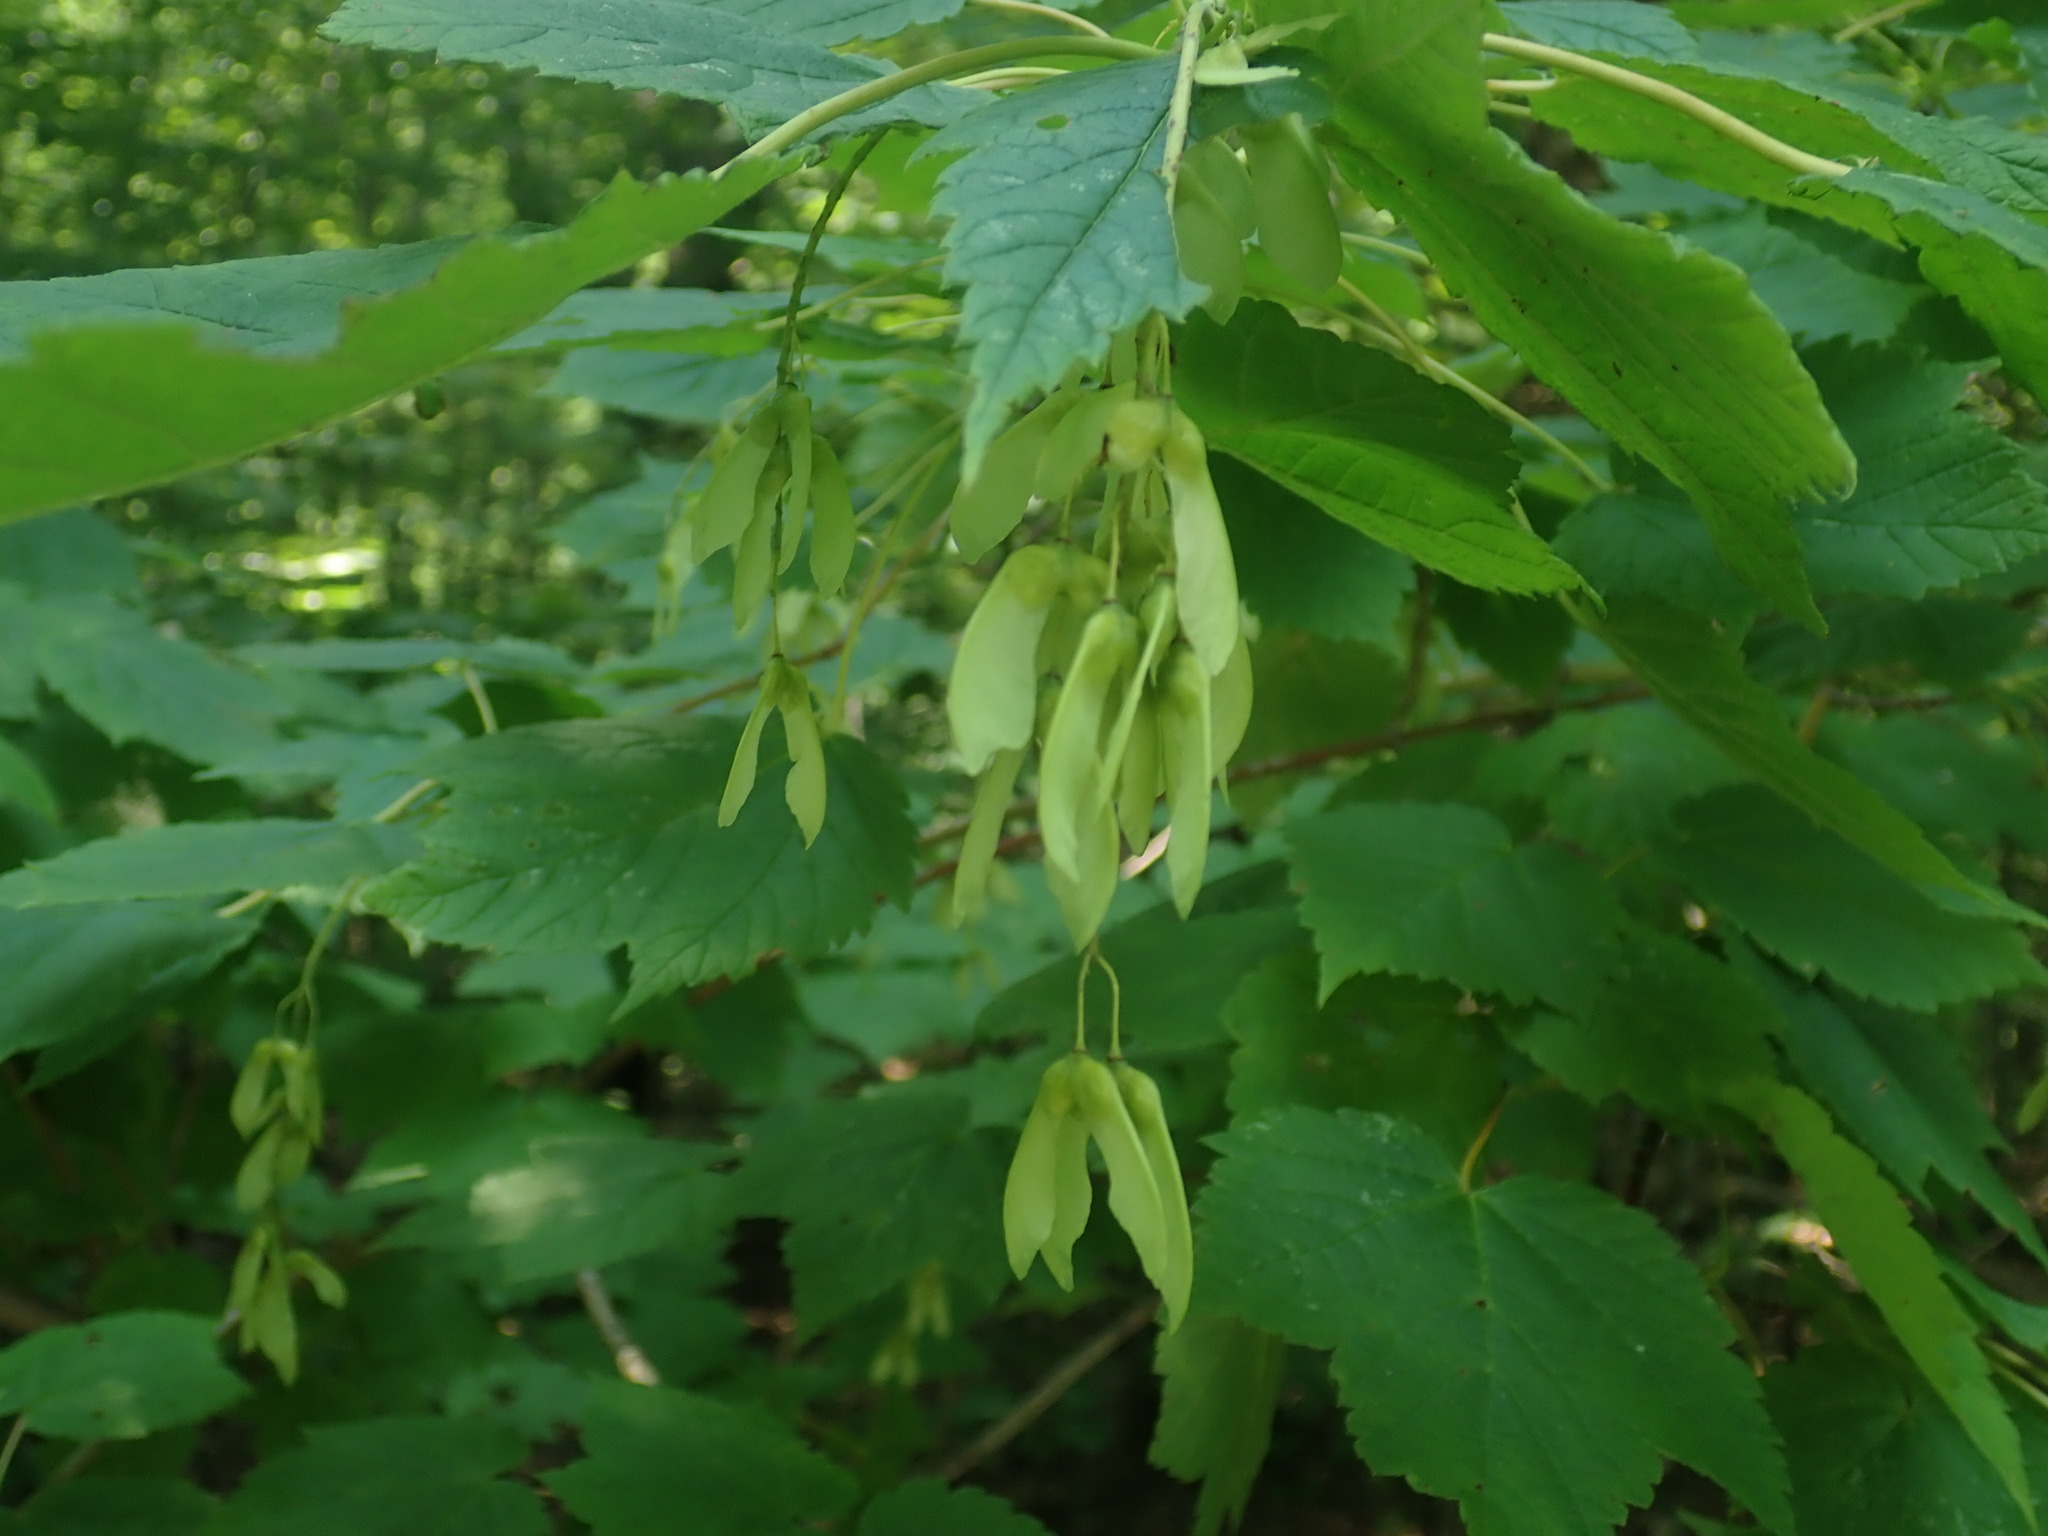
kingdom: Plantae
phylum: Tracheophyta
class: Magnoliopsida
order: Sapindales
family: Sapindaceae
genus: Acer
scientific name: Acer spicatum
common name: Mountain maple
